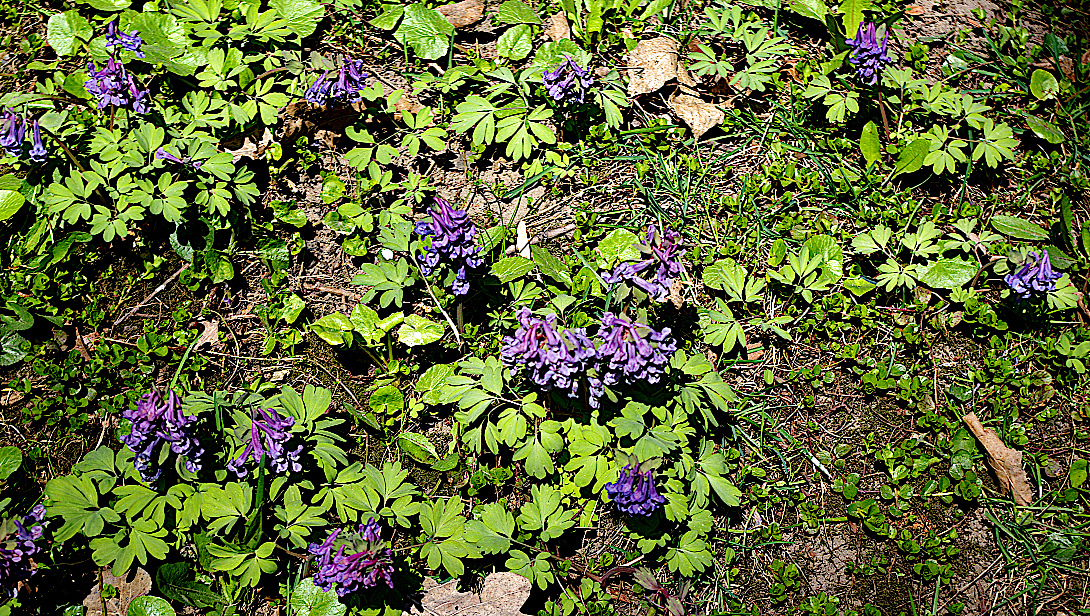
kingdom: Plantae
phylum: Tracheophyta
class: Magnoliopsida
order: Ranunculales
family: Papaveraceae
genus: Corydalis
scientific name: Corydalis solida
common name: Bird-in-a-bush
